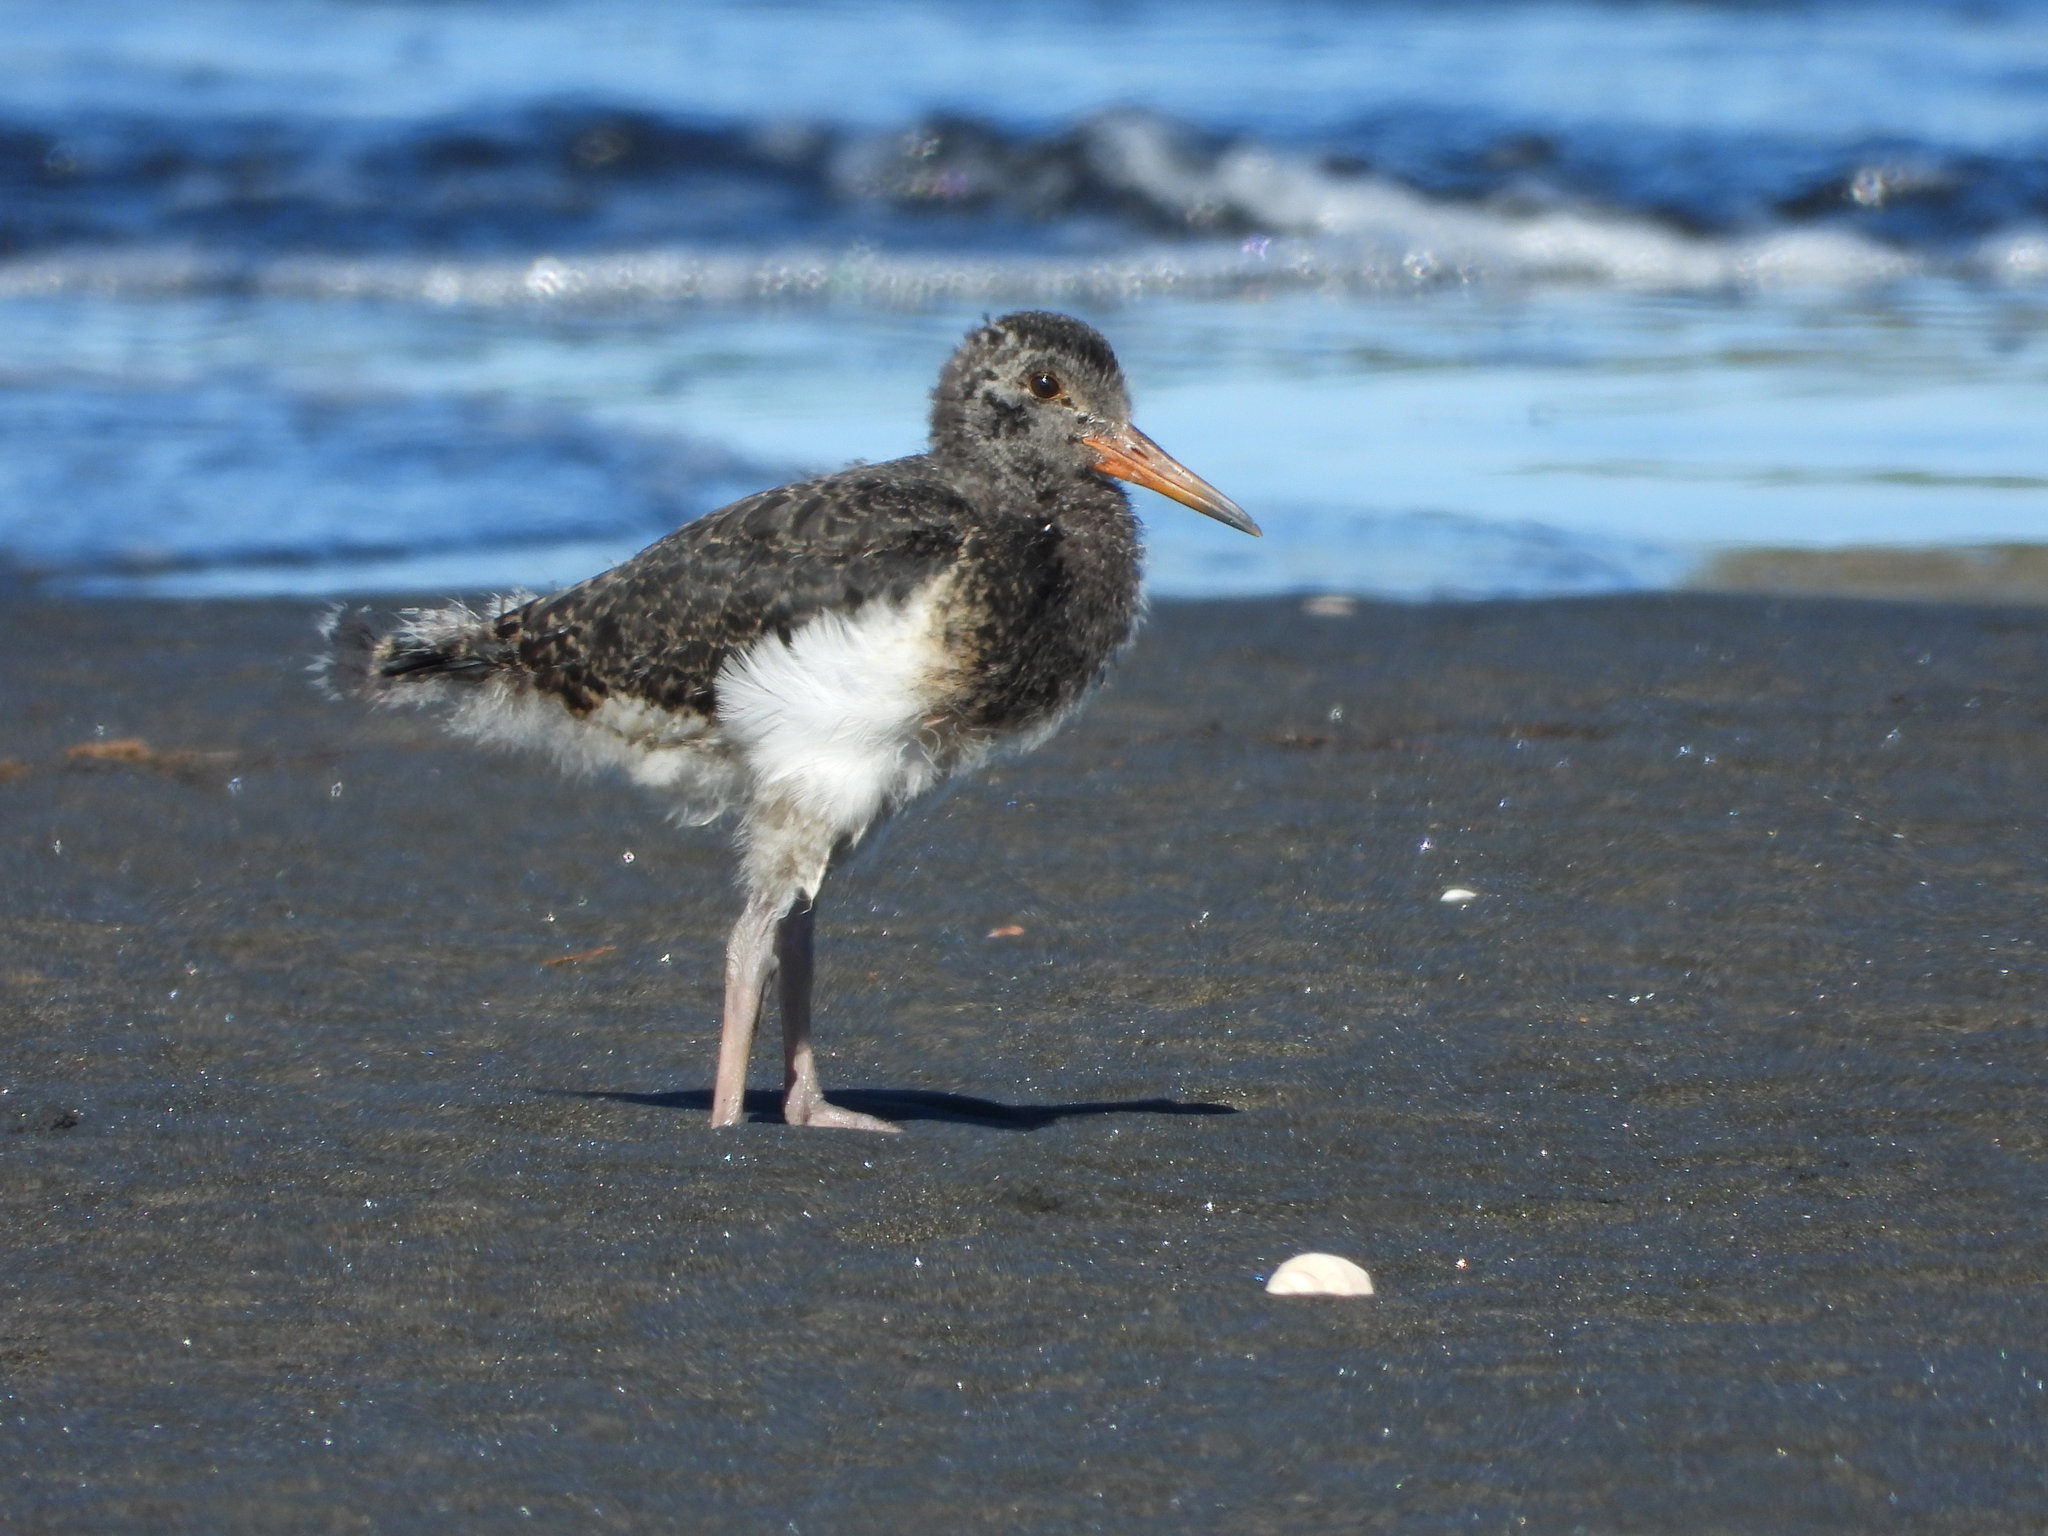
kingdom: Animalia
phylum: Chordata
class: Aves
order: Charadriiformes
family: Haematopodidae
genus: Haematopus
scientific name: Haematopus unicolor
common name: Variable oystercatcher
